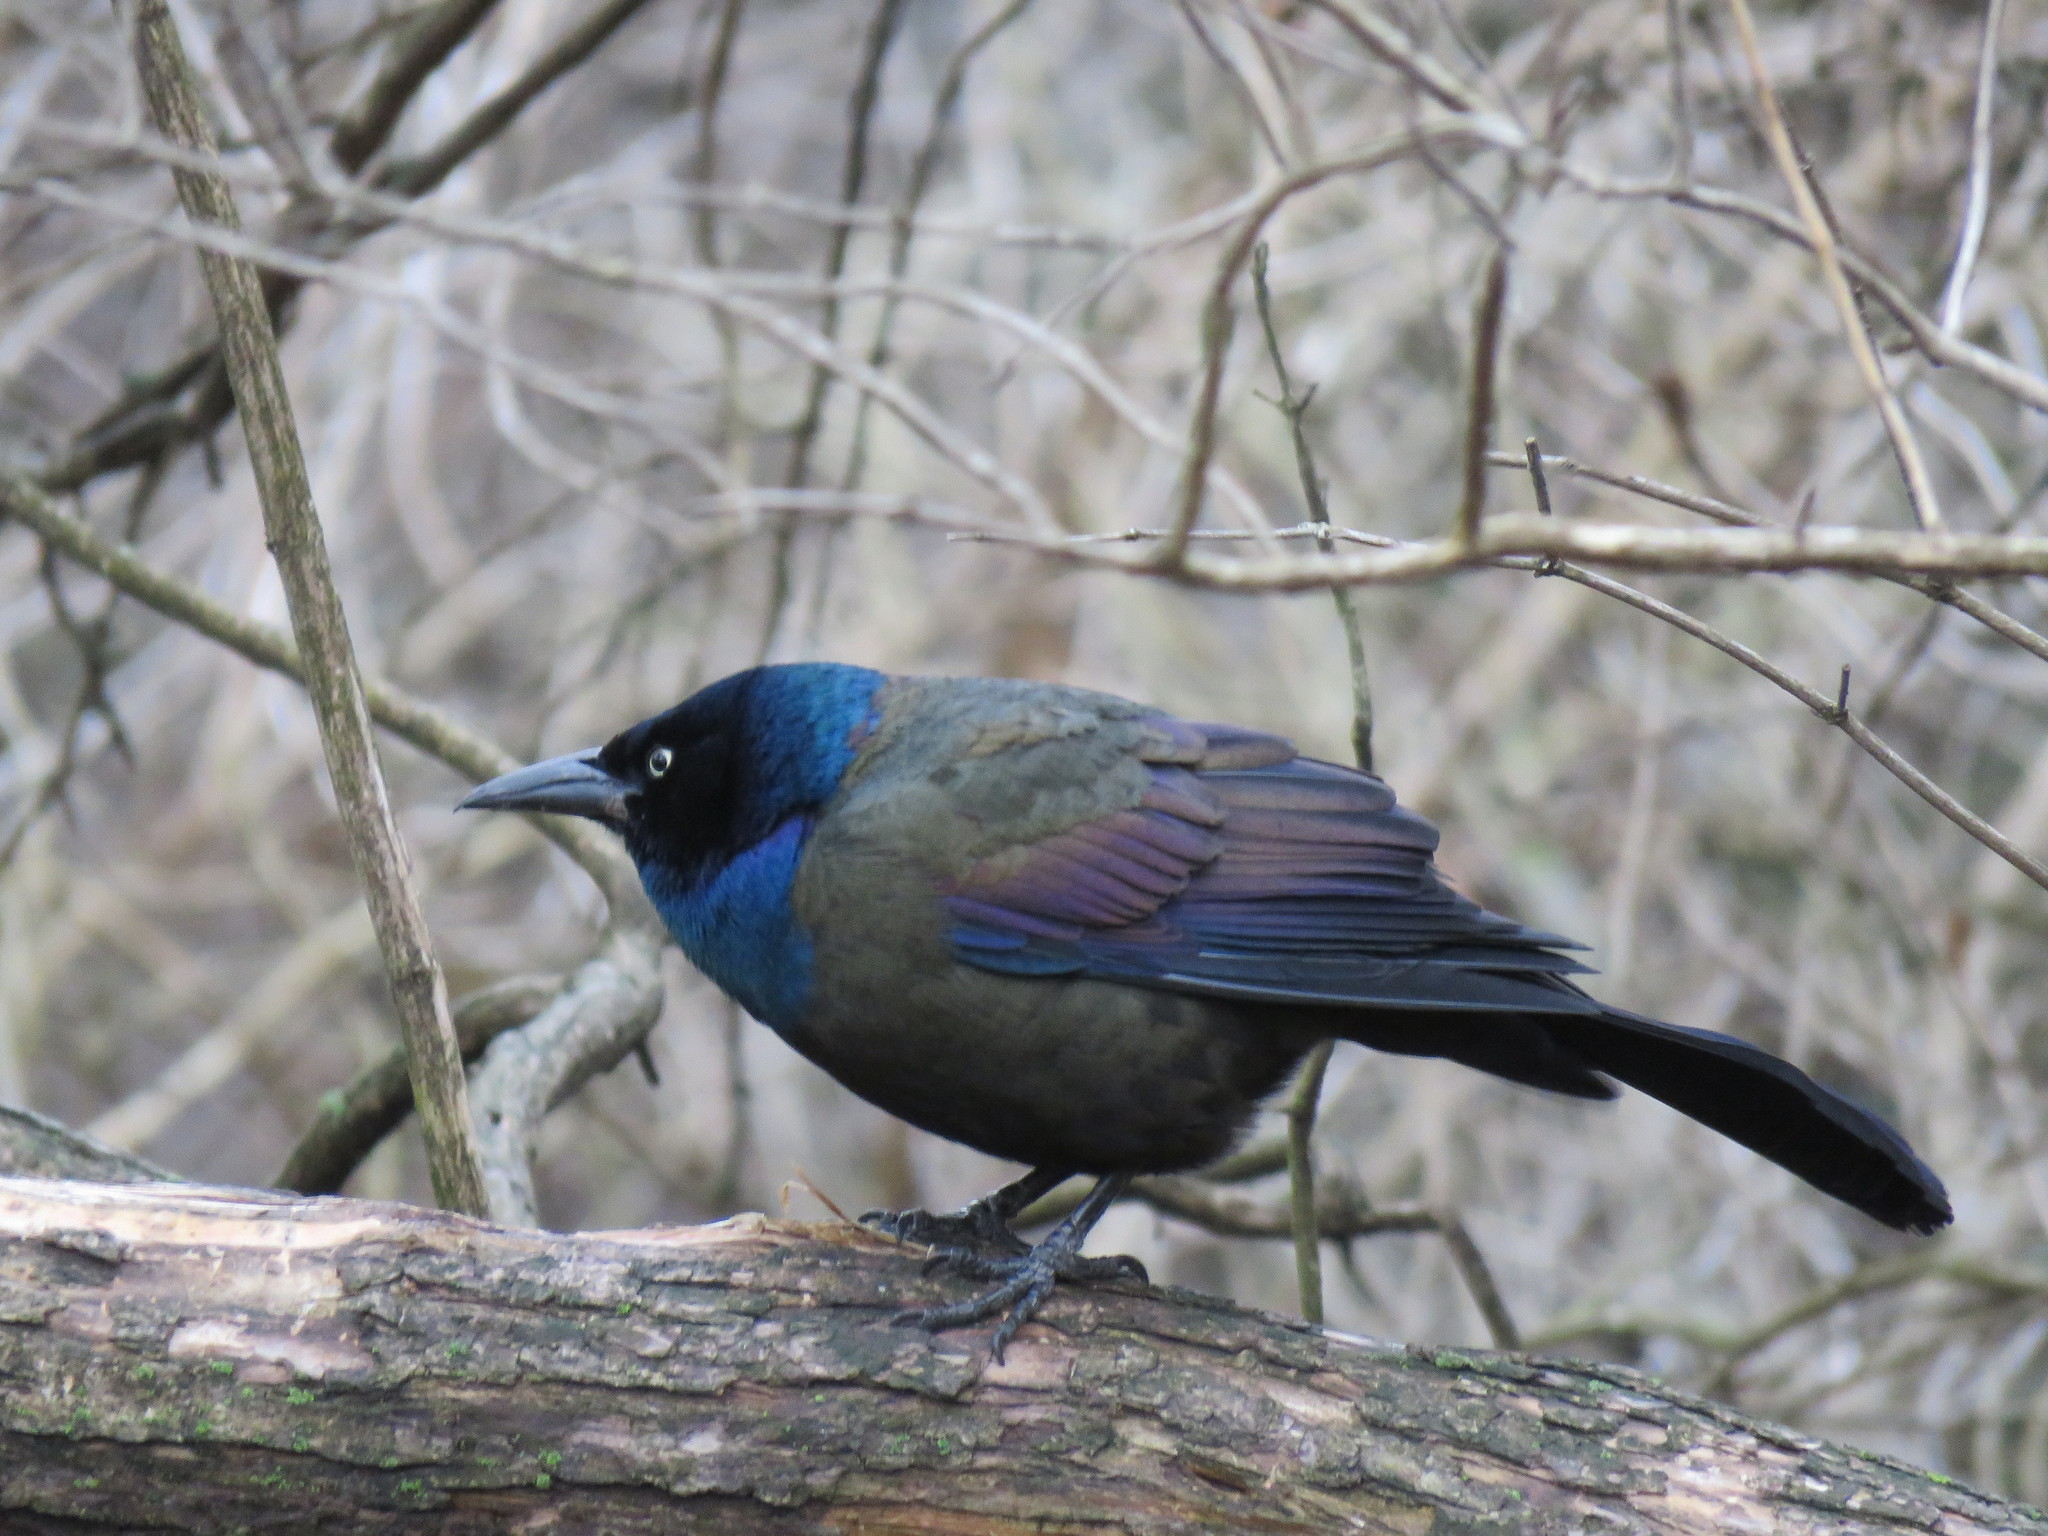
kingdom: Animalia
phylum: Chordata
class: Aves
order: Passeriformes
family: Icteridae
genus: Quiscalus
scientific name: Quiscalus quiscula
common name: Common grackle
